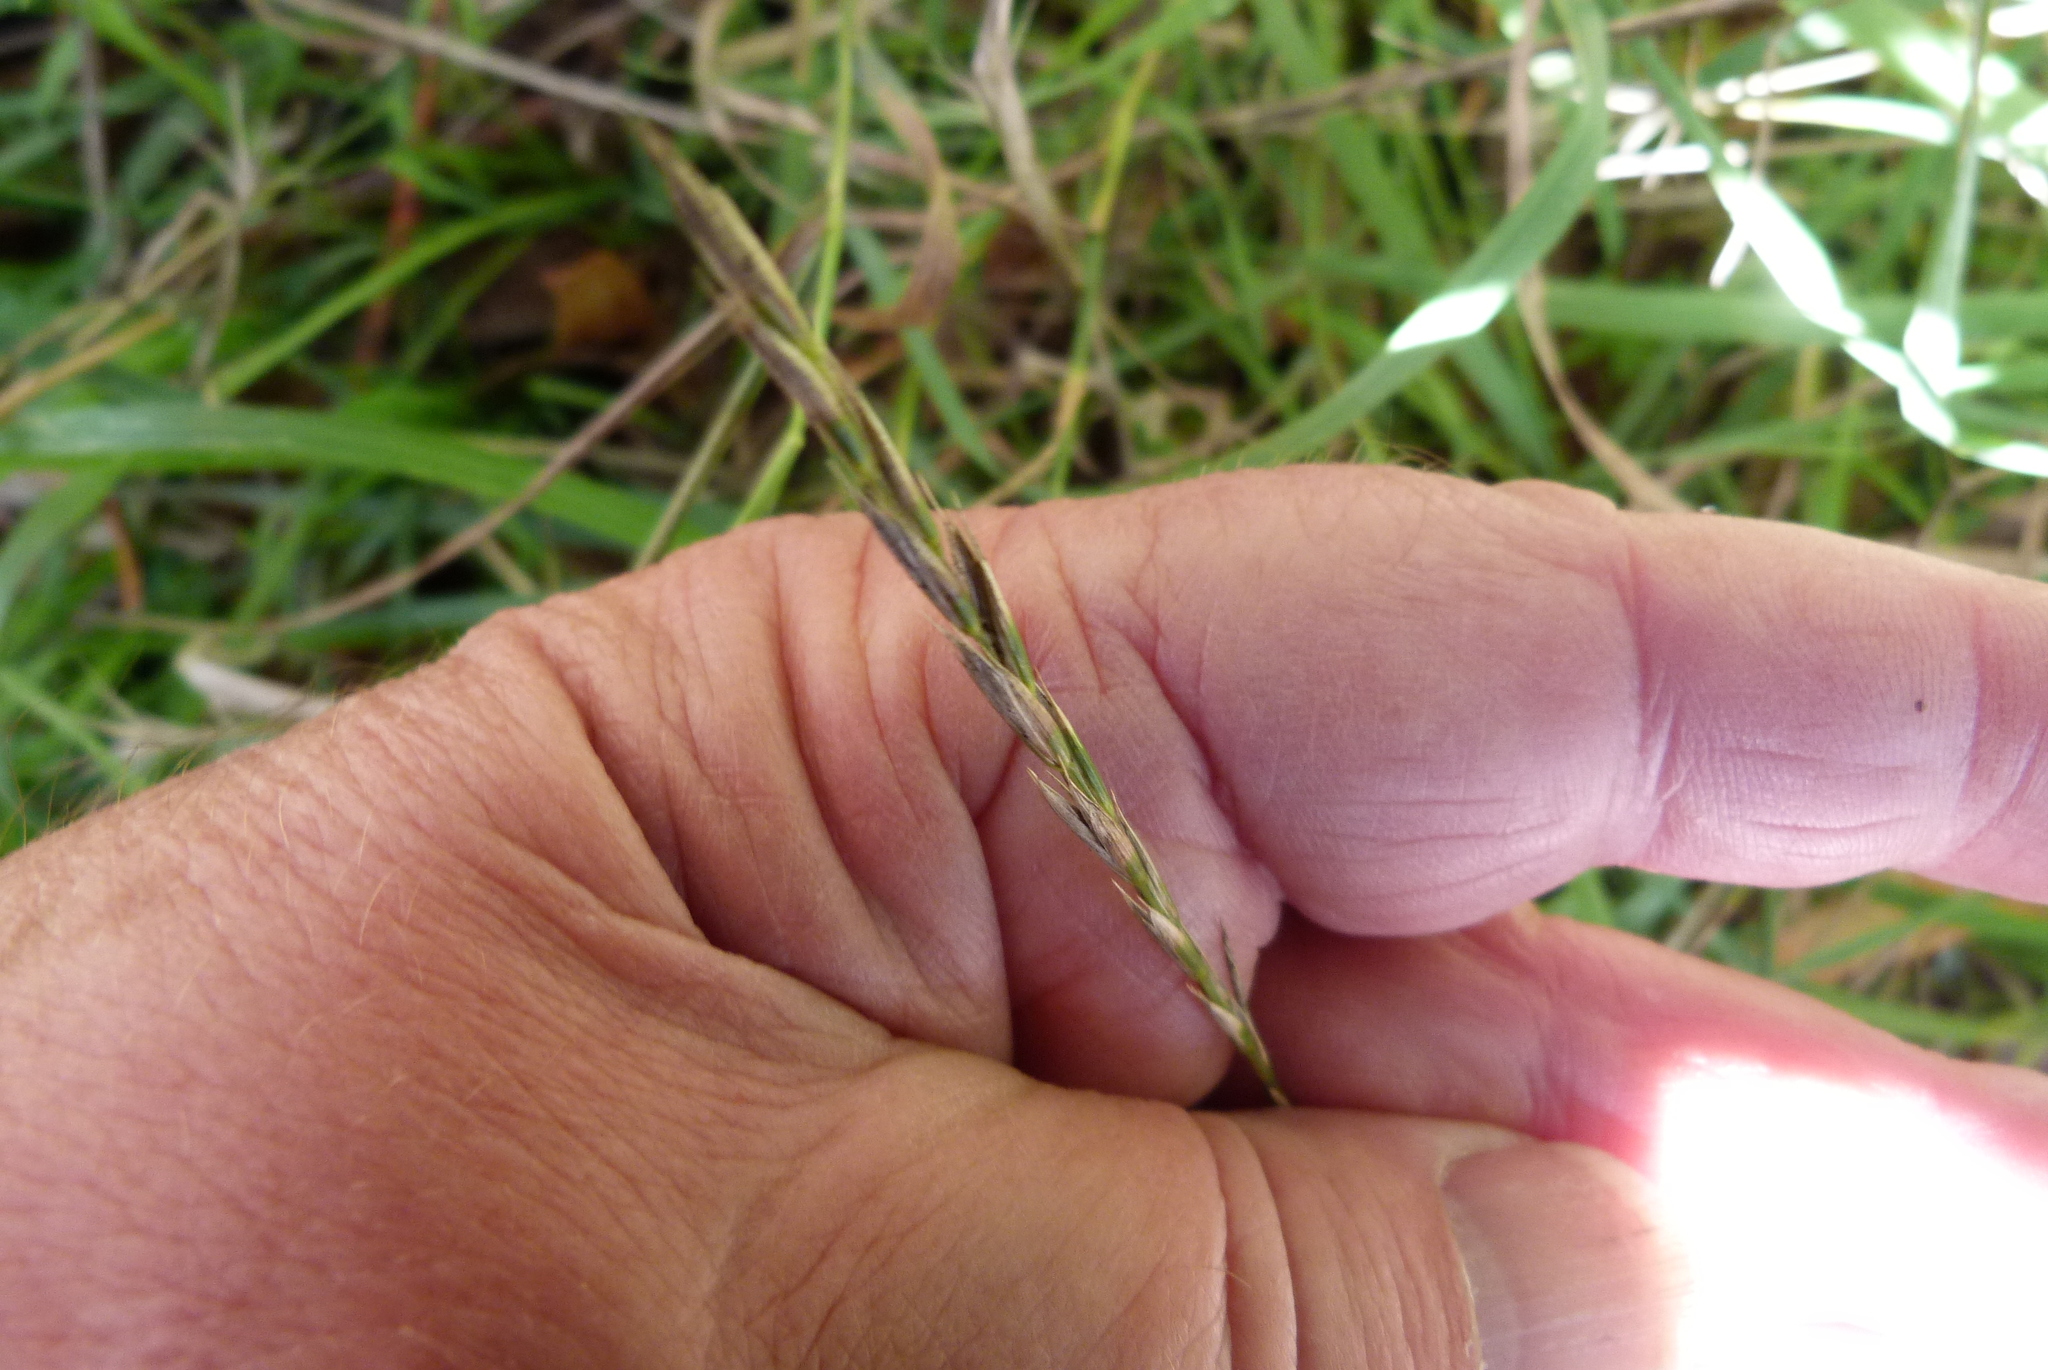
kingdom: Plantae
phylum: Tracheophyta
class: Liliopsida
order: Poales
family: Poaceae
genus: Elymus
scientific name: Elymus repens
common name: Quackgrass
